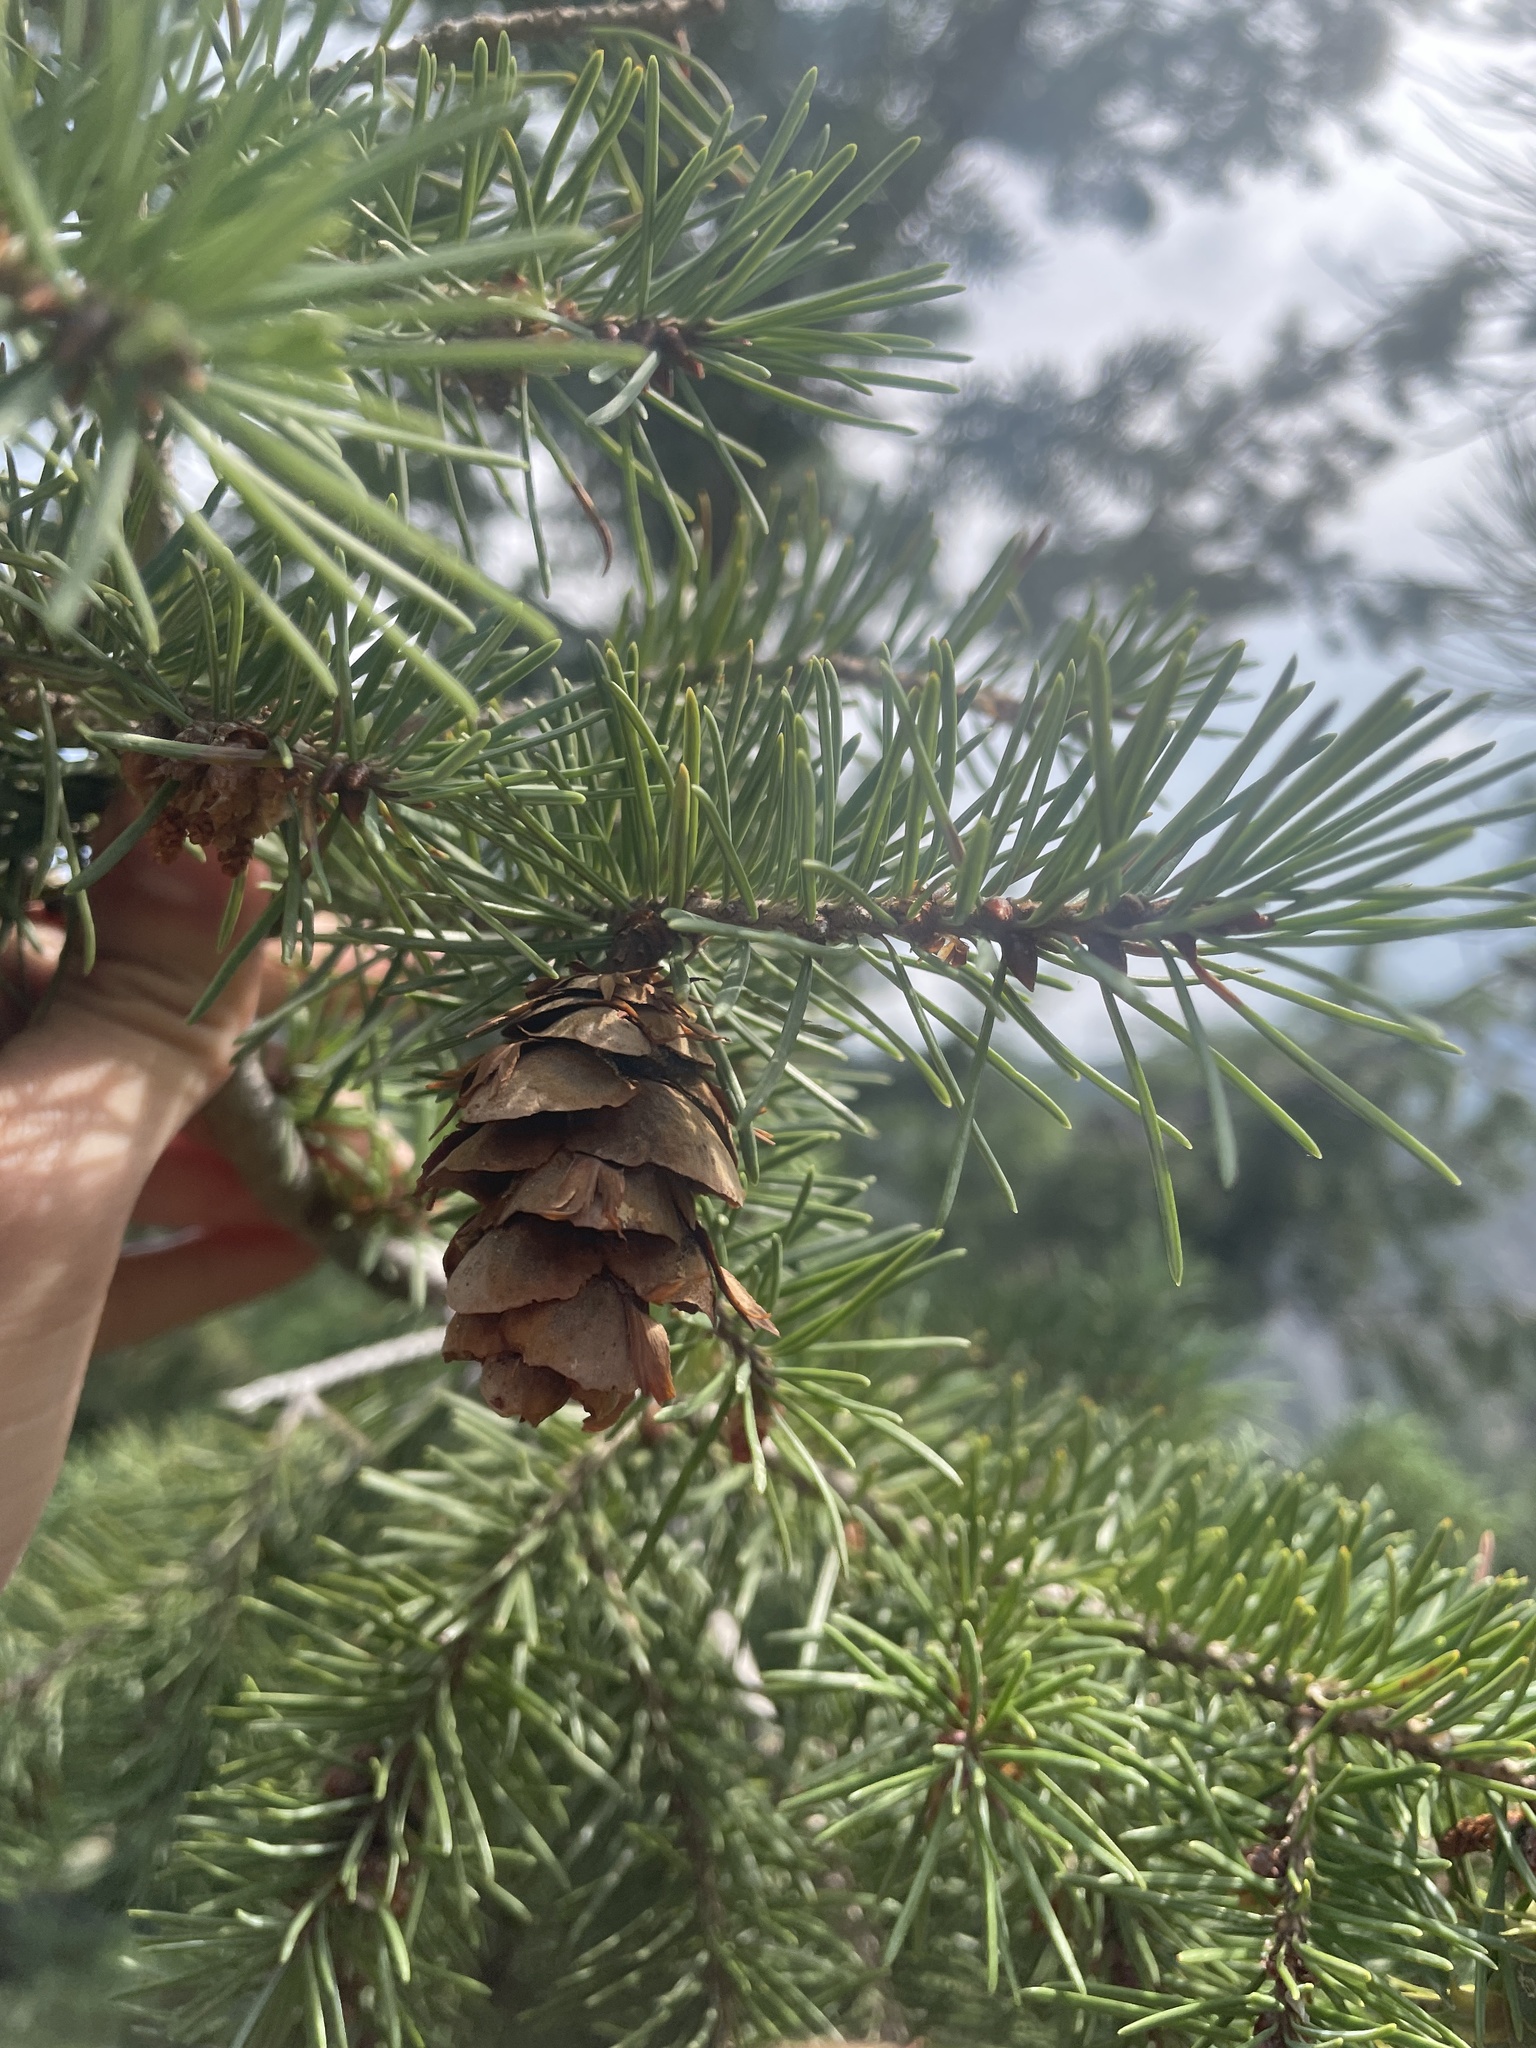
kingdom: Plantae
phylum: Tracheophyta
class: Pinopsida
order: Pinales
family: Pinaceae
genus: Pseudotsuga
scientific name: Pseudotsuga menziesii
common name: Douglas fir
